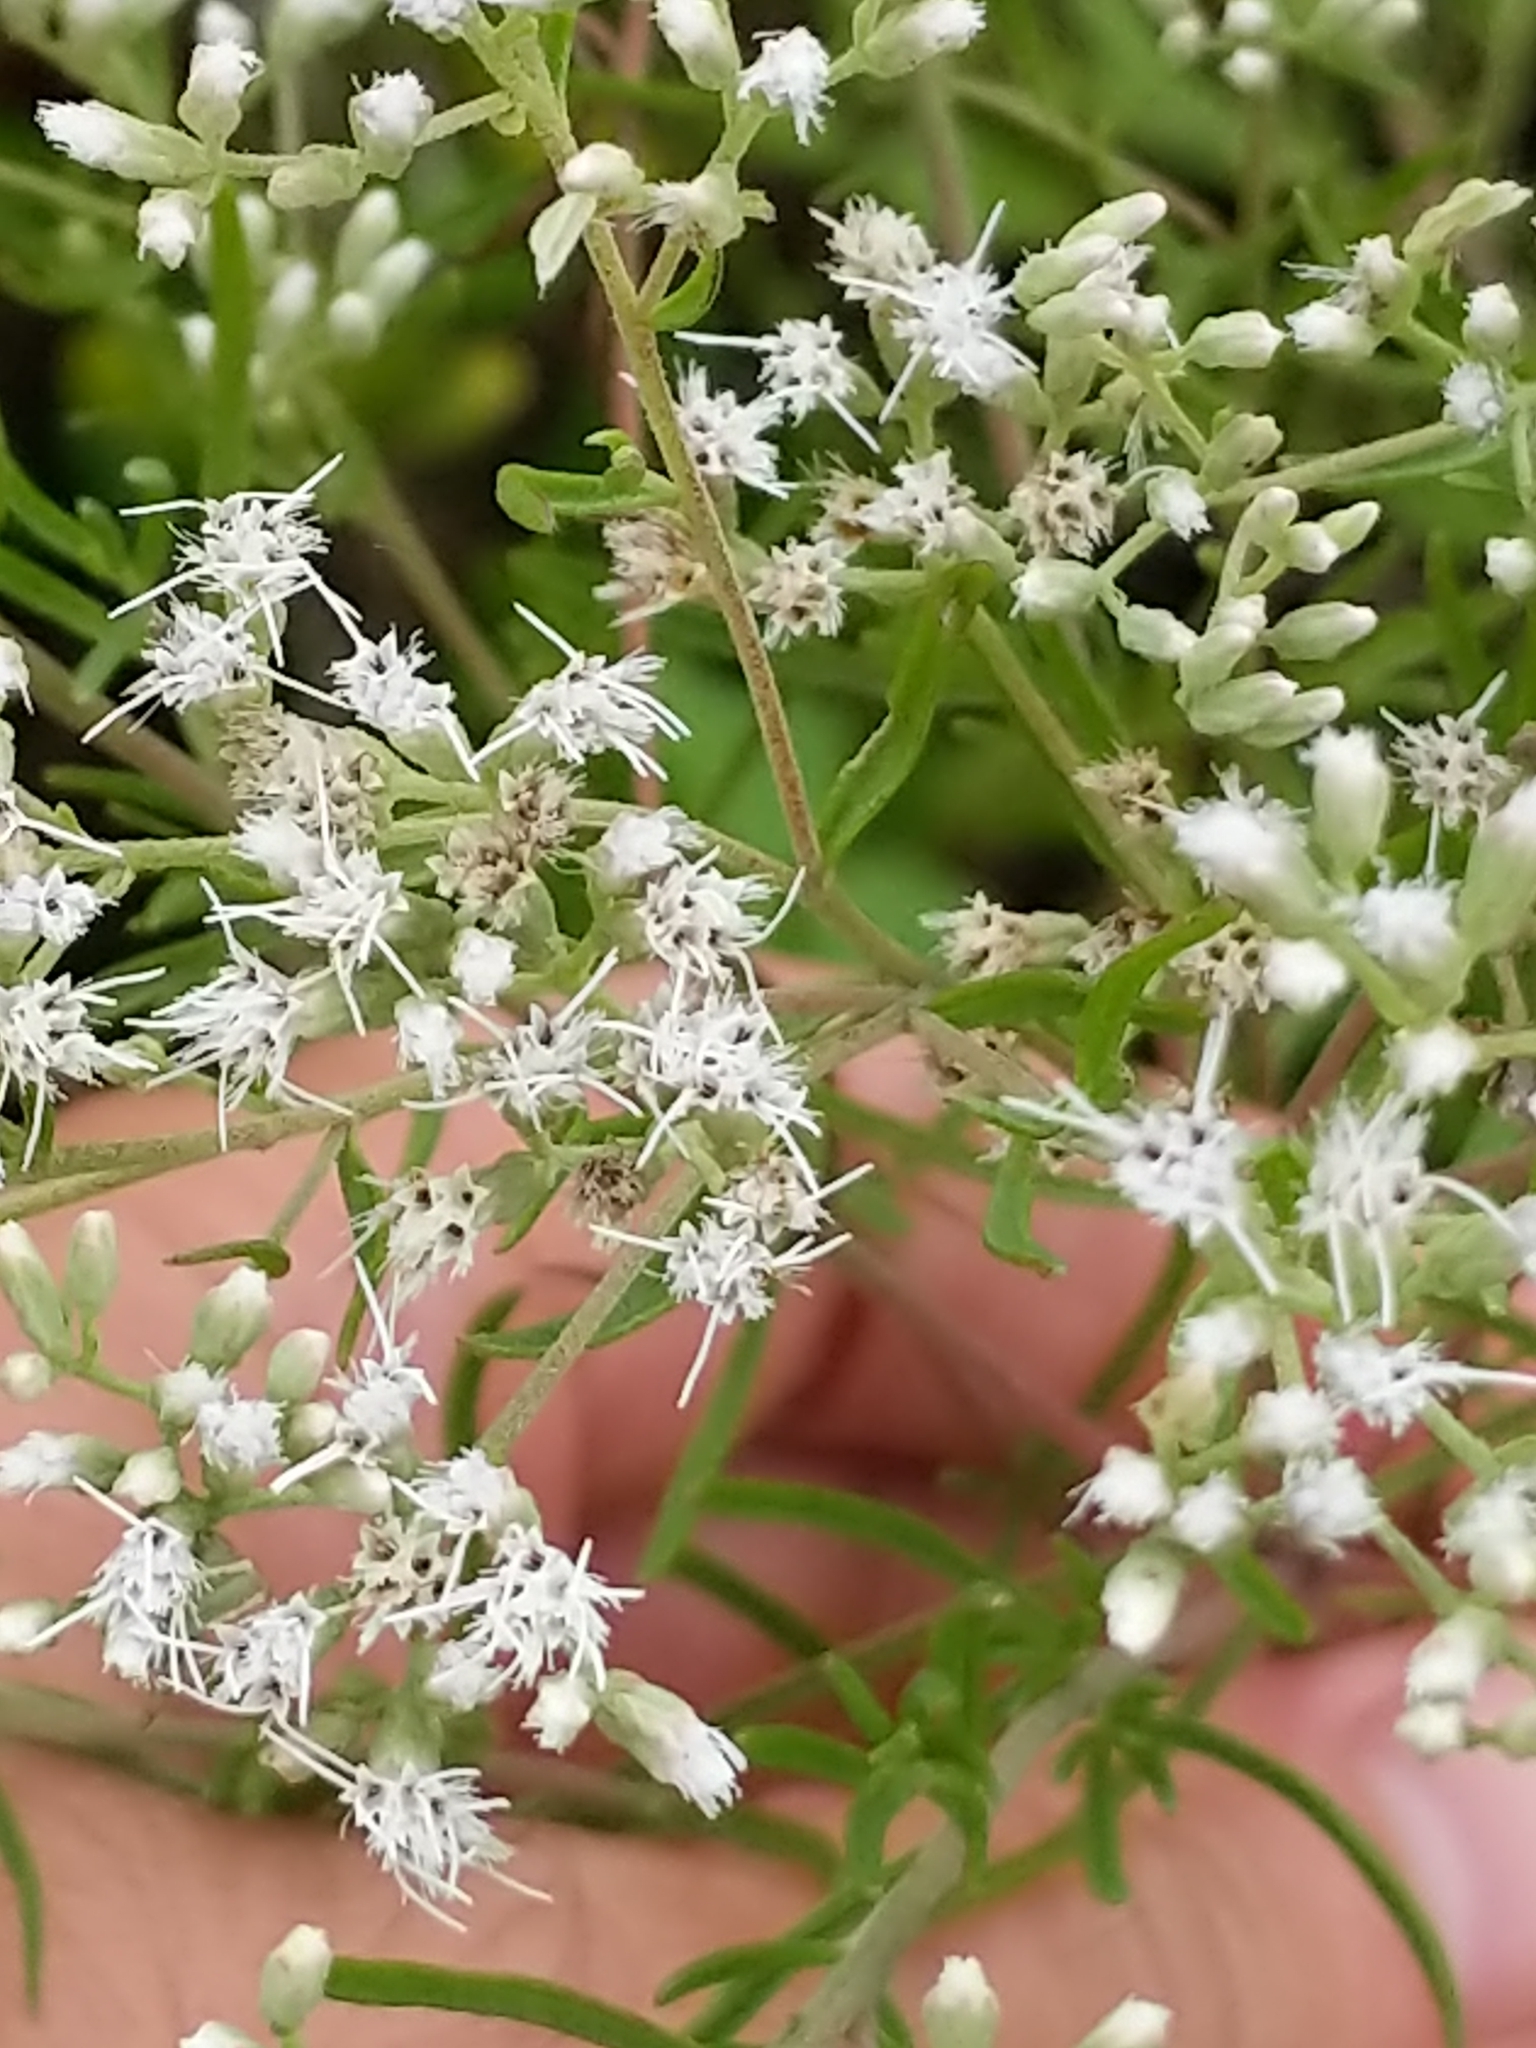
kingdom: Plantae
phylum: Tracheophyta
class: Magnoliopsida
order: Asterales
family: Asteraceae
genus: Eupatorium
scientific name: Eupatorium hyssopifolium
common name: Hyssop-leaf thoroughwort
